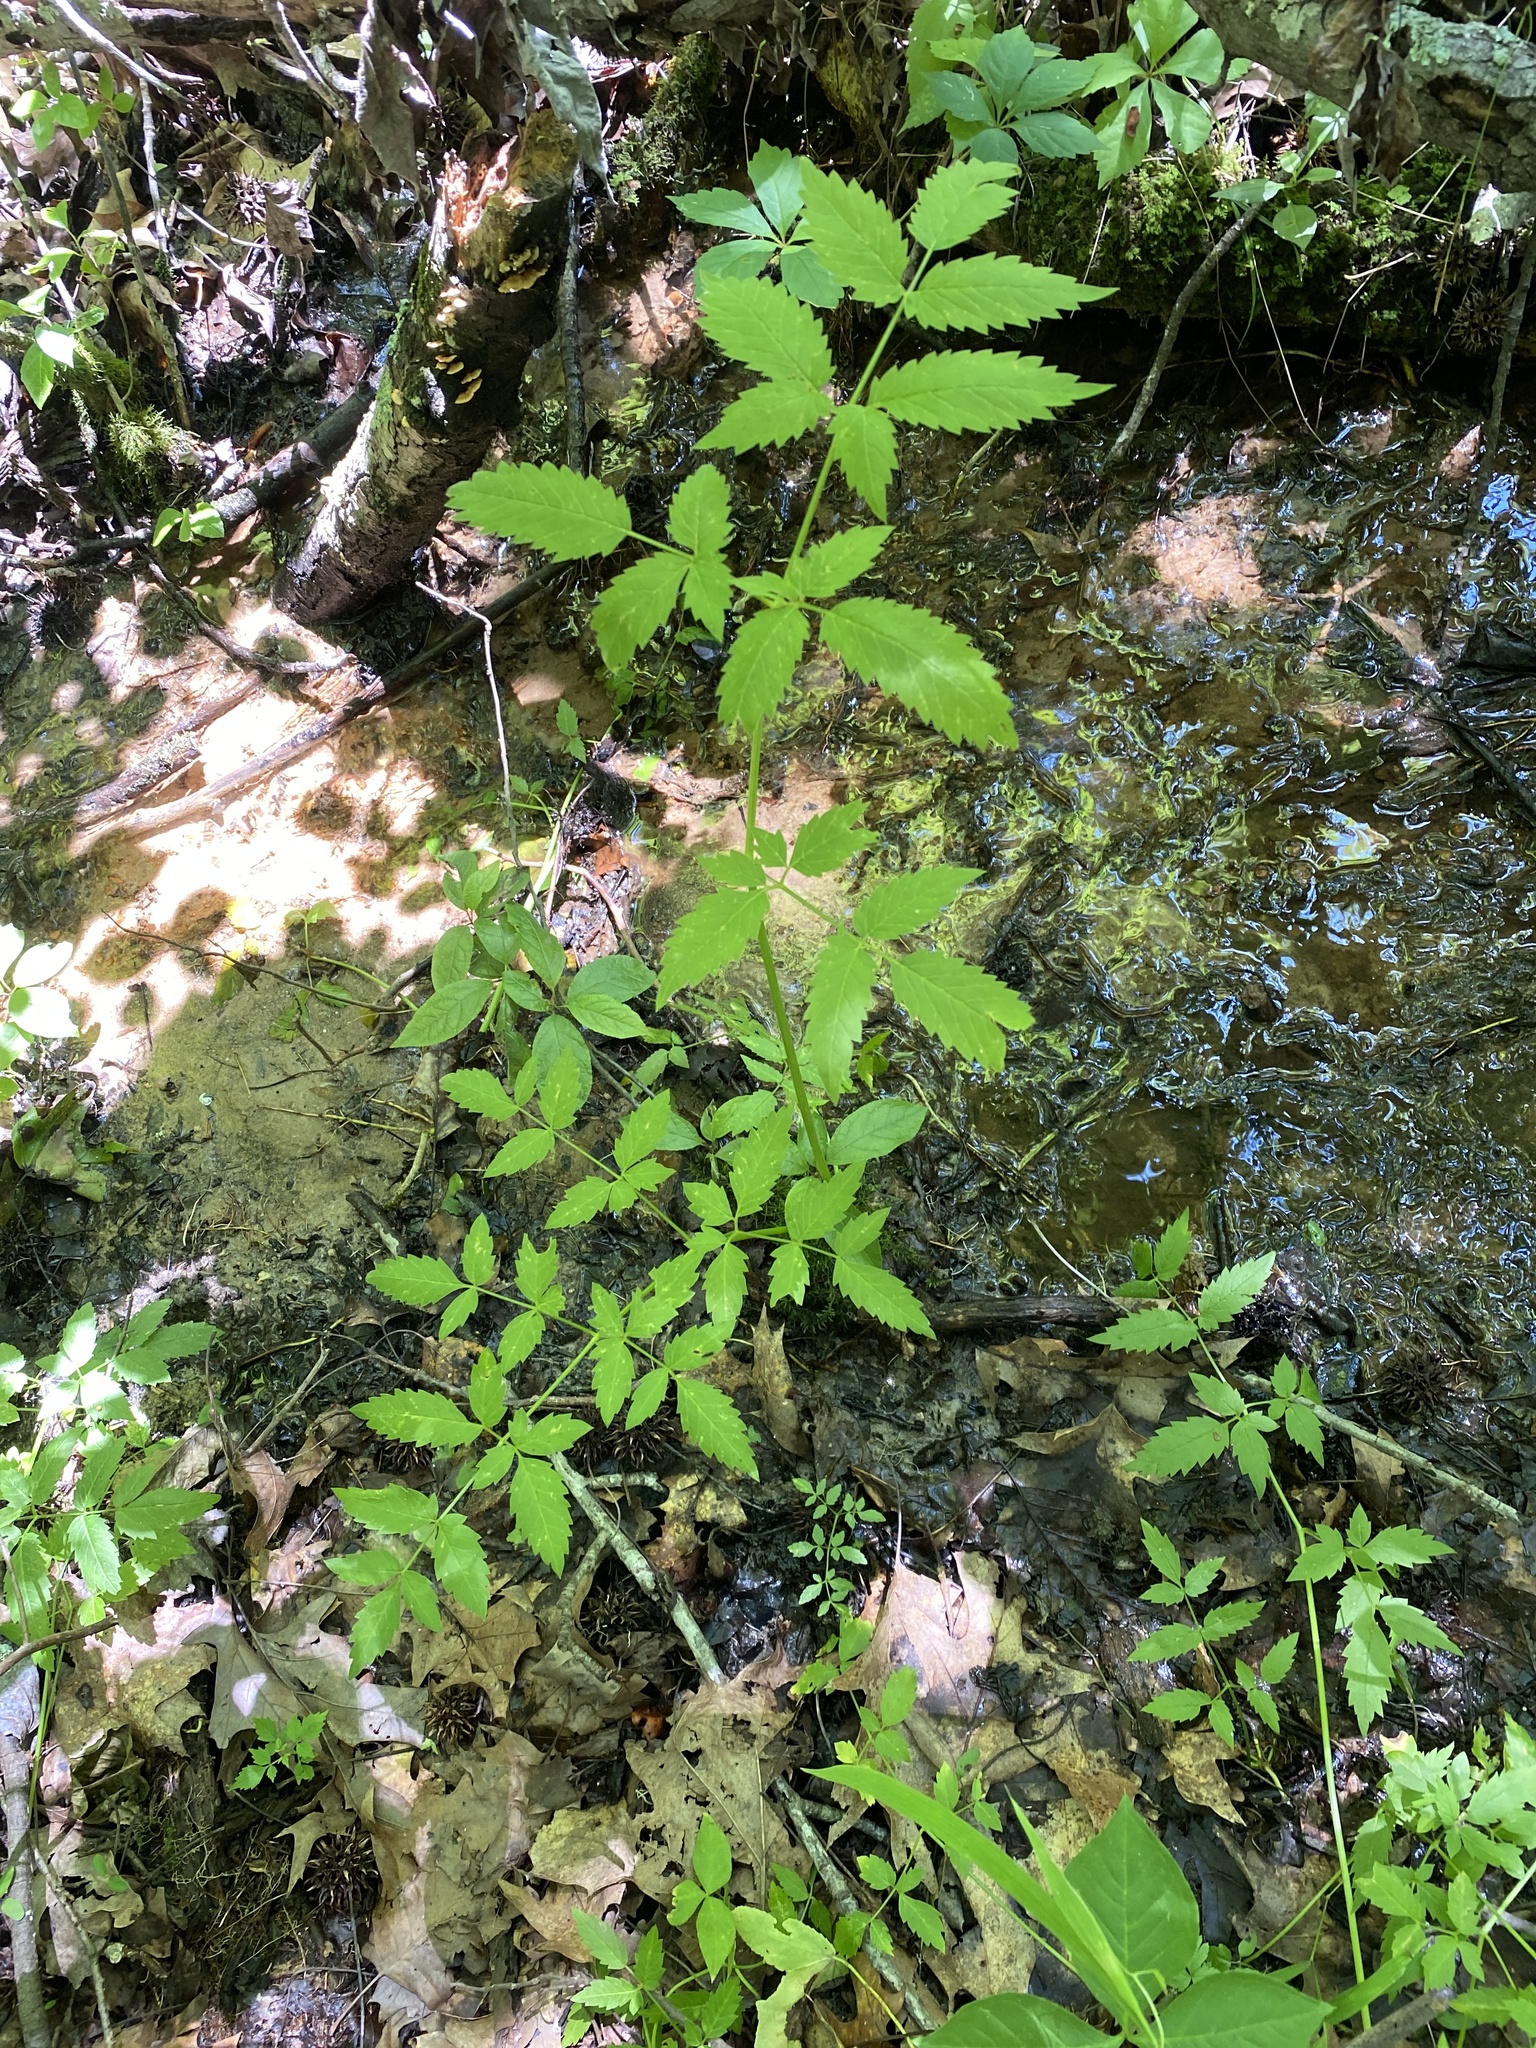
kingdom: Plantae
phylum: Tracheophyta
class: Magnoliopsida
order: Apiales
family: Apiaceae
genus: Conium
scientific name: Conium maculatum
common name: Hemlock
